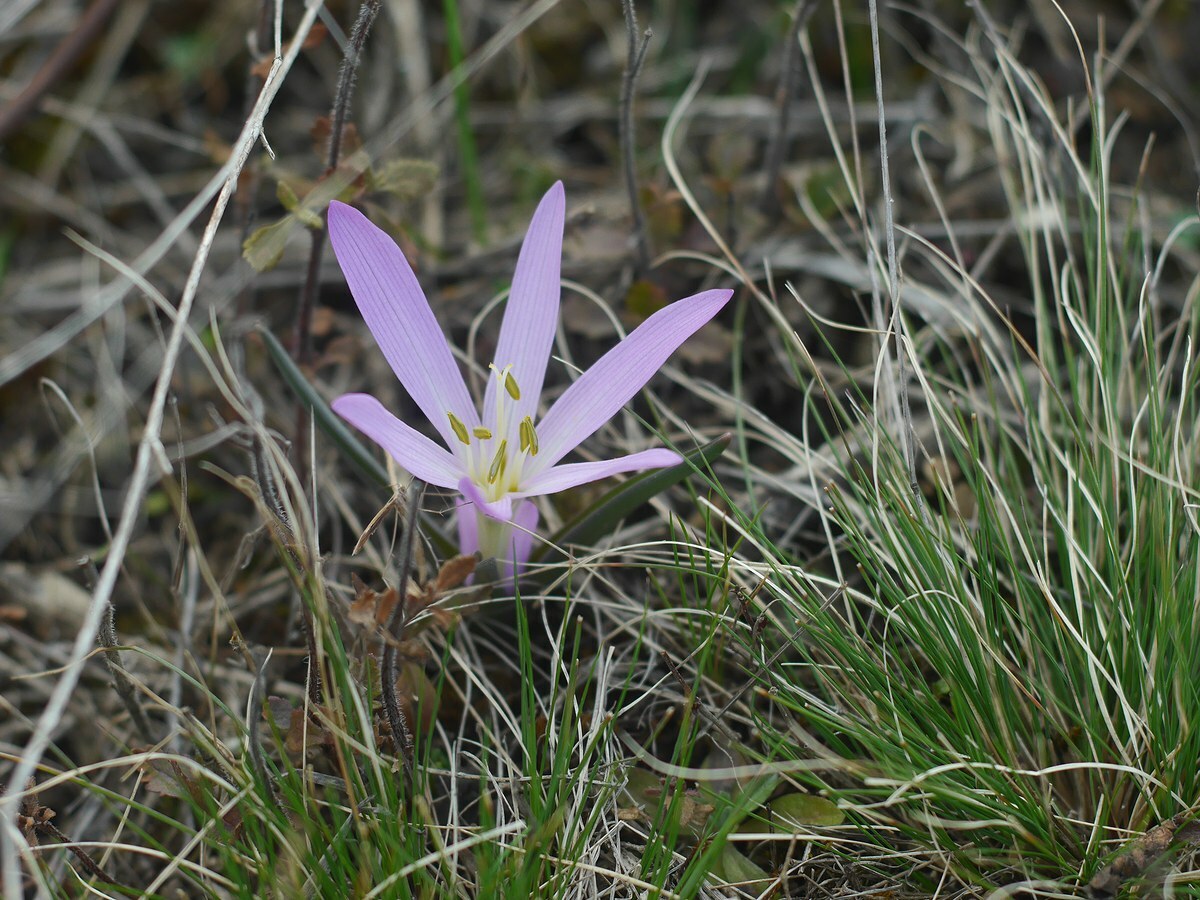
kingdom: Plantae
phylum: Tracheophyta
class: Liliopsida
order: Liliales
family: Colchicaceae
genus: Colchicum
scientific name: Colchicum bulbocodium
